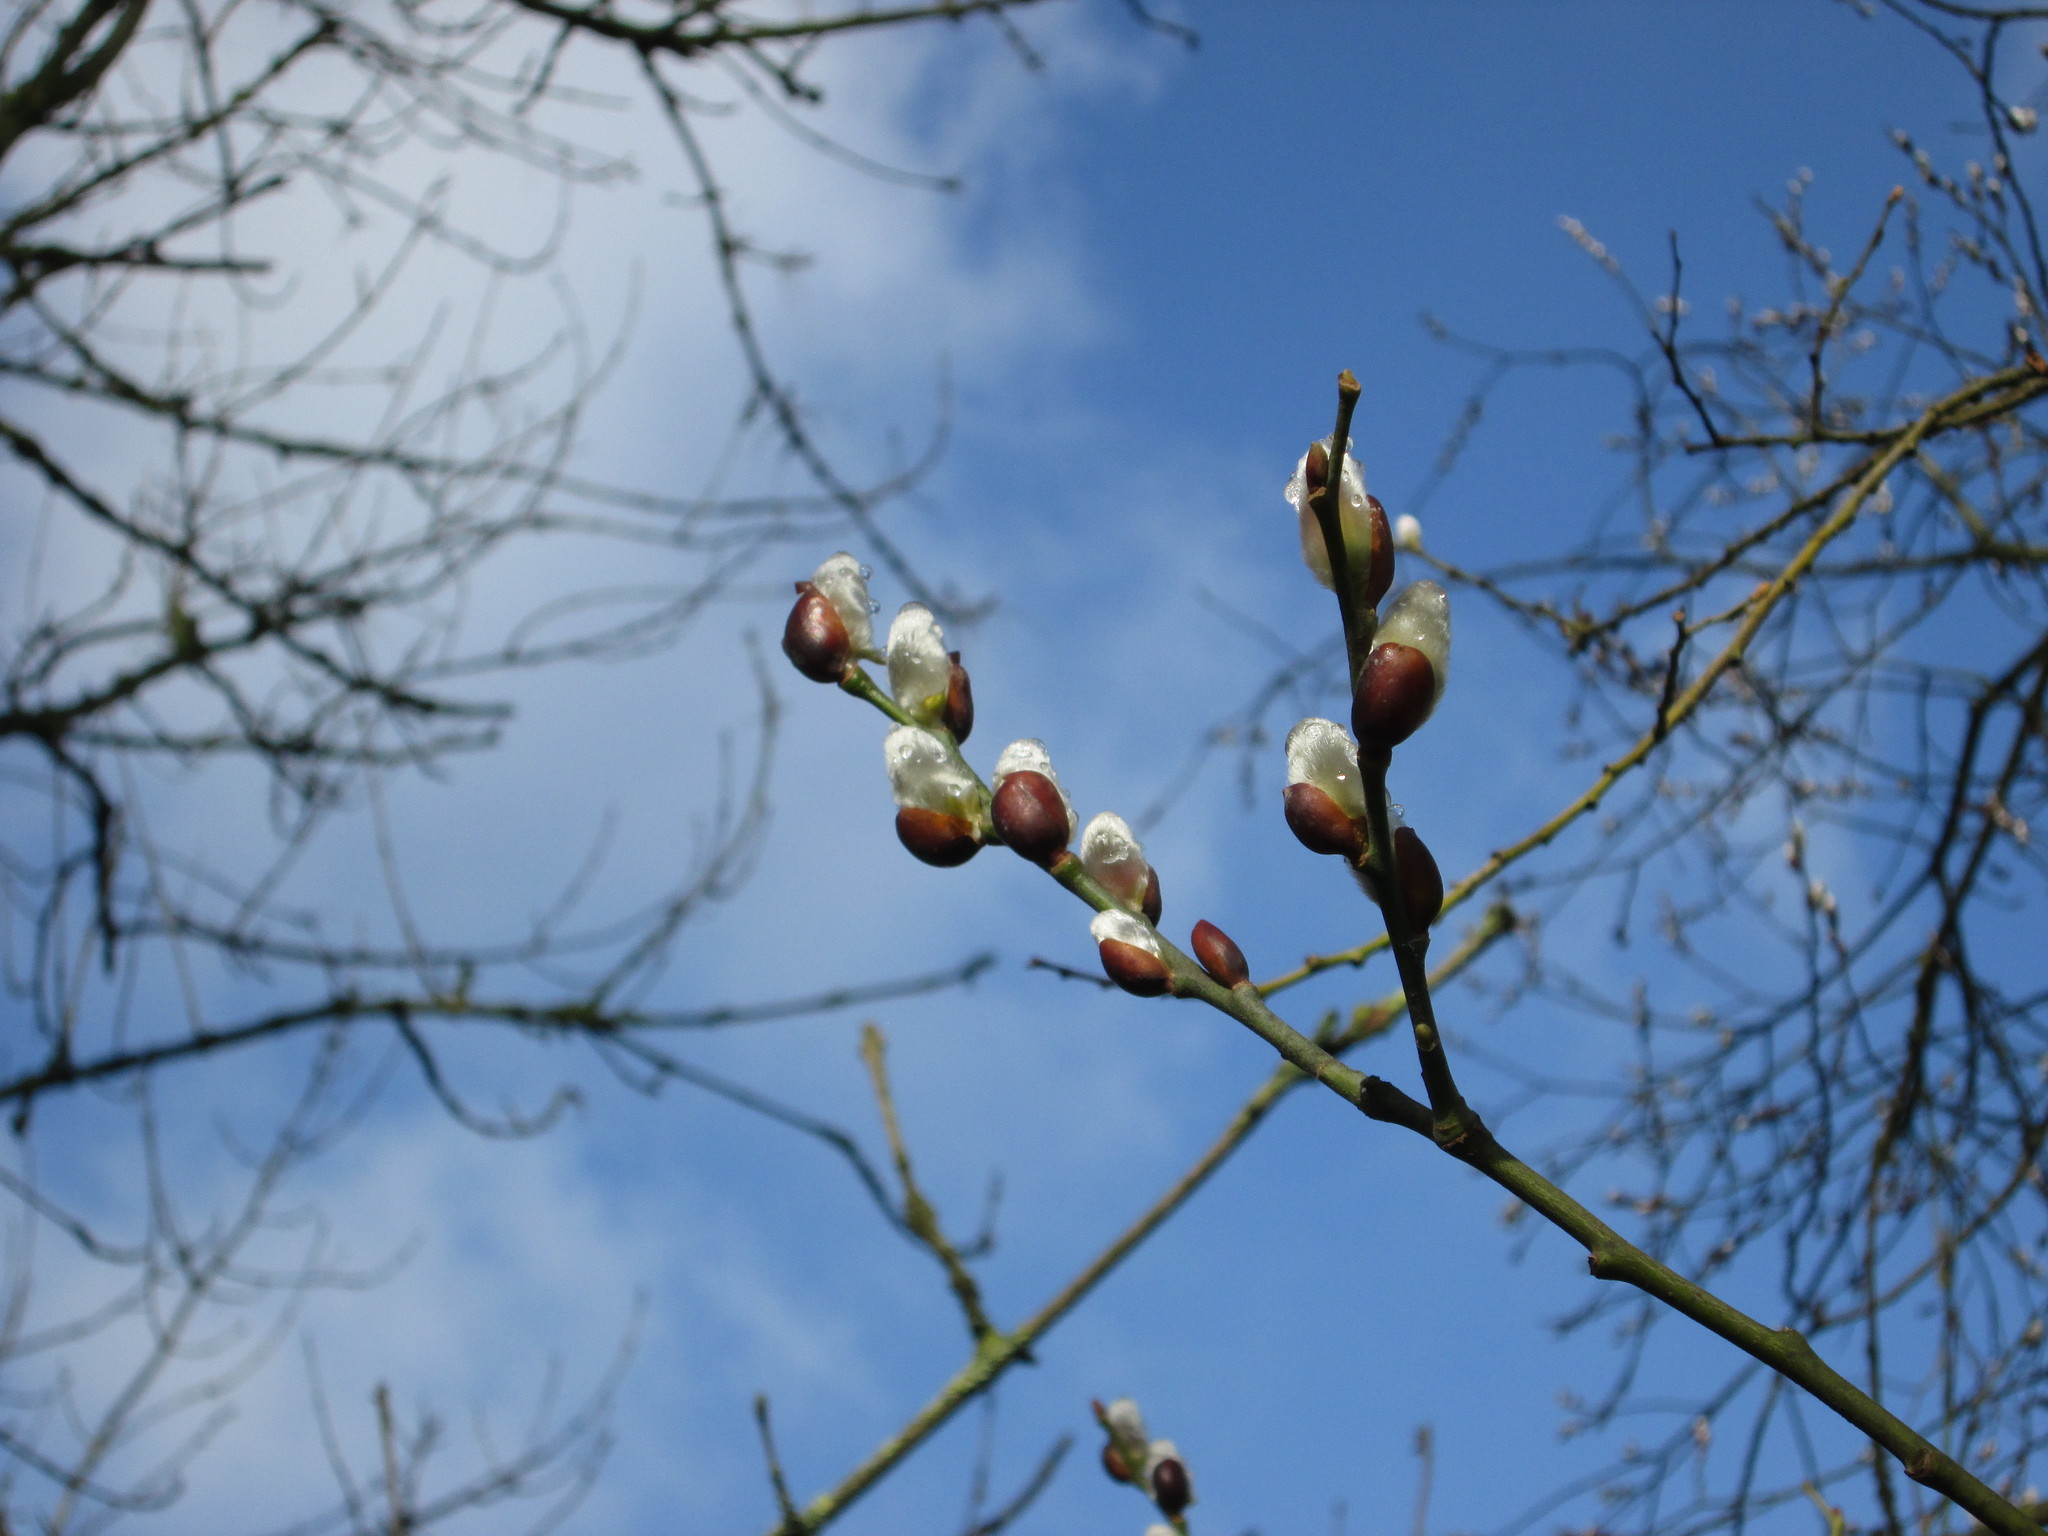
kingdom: Plantae
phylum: Tracheophyta
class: Magnoliopsida
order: Malpighiales
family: Salicaceae
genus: Salix
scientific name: Salix caprea
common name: Goat willow
